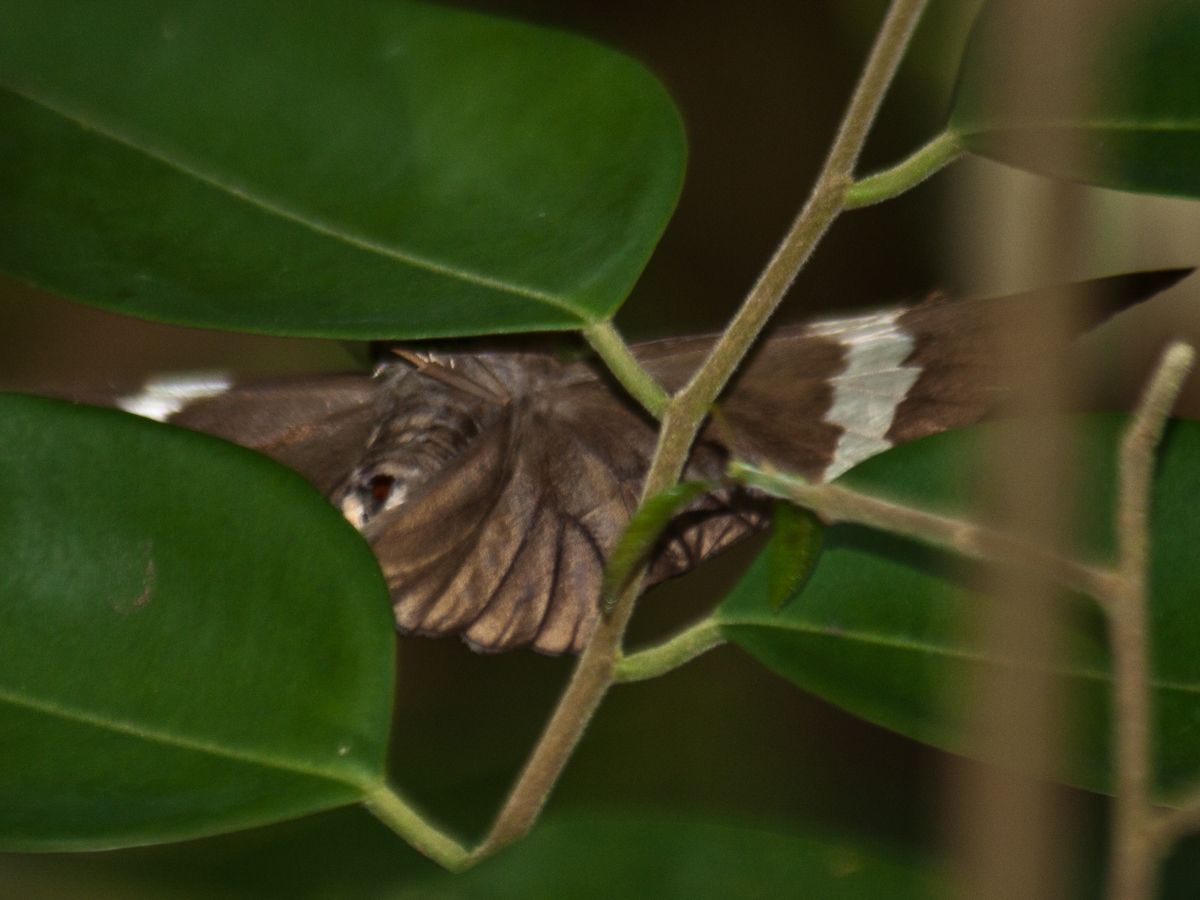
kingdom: Animalia
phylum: Arthropoda
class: Insecta
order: Lepidoptera
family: Hesperiidae
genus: Capila
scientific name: Capila hainana
